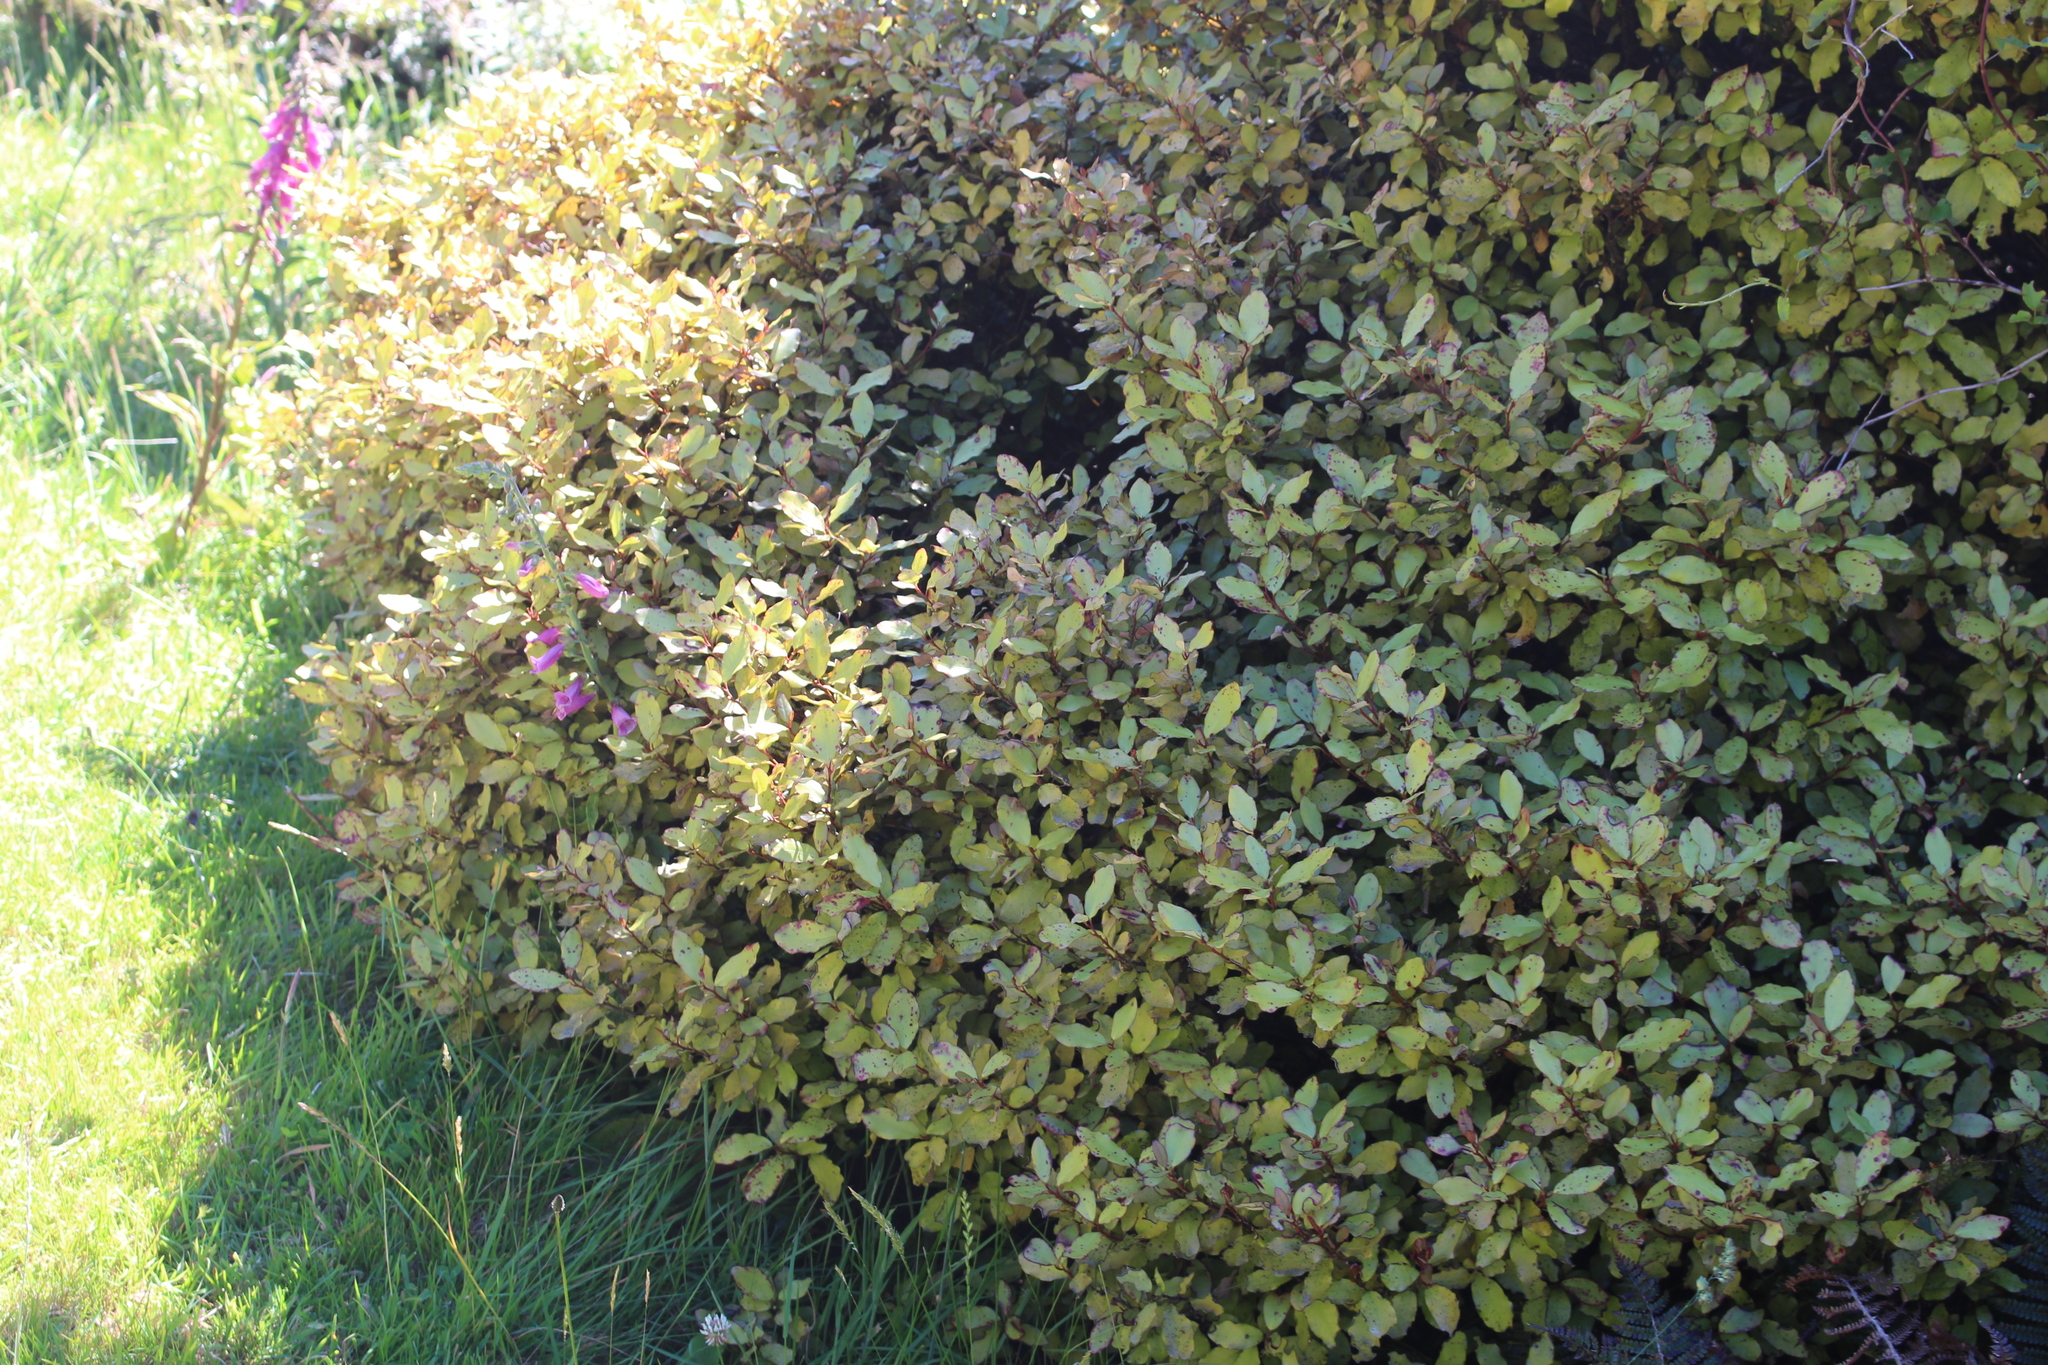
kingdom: Plantae
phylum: Tracheophyta
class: Magnoliopsida
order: Canellales
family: Winteraceae
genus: Pseudowintera
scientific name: Pseudowintera colorata
